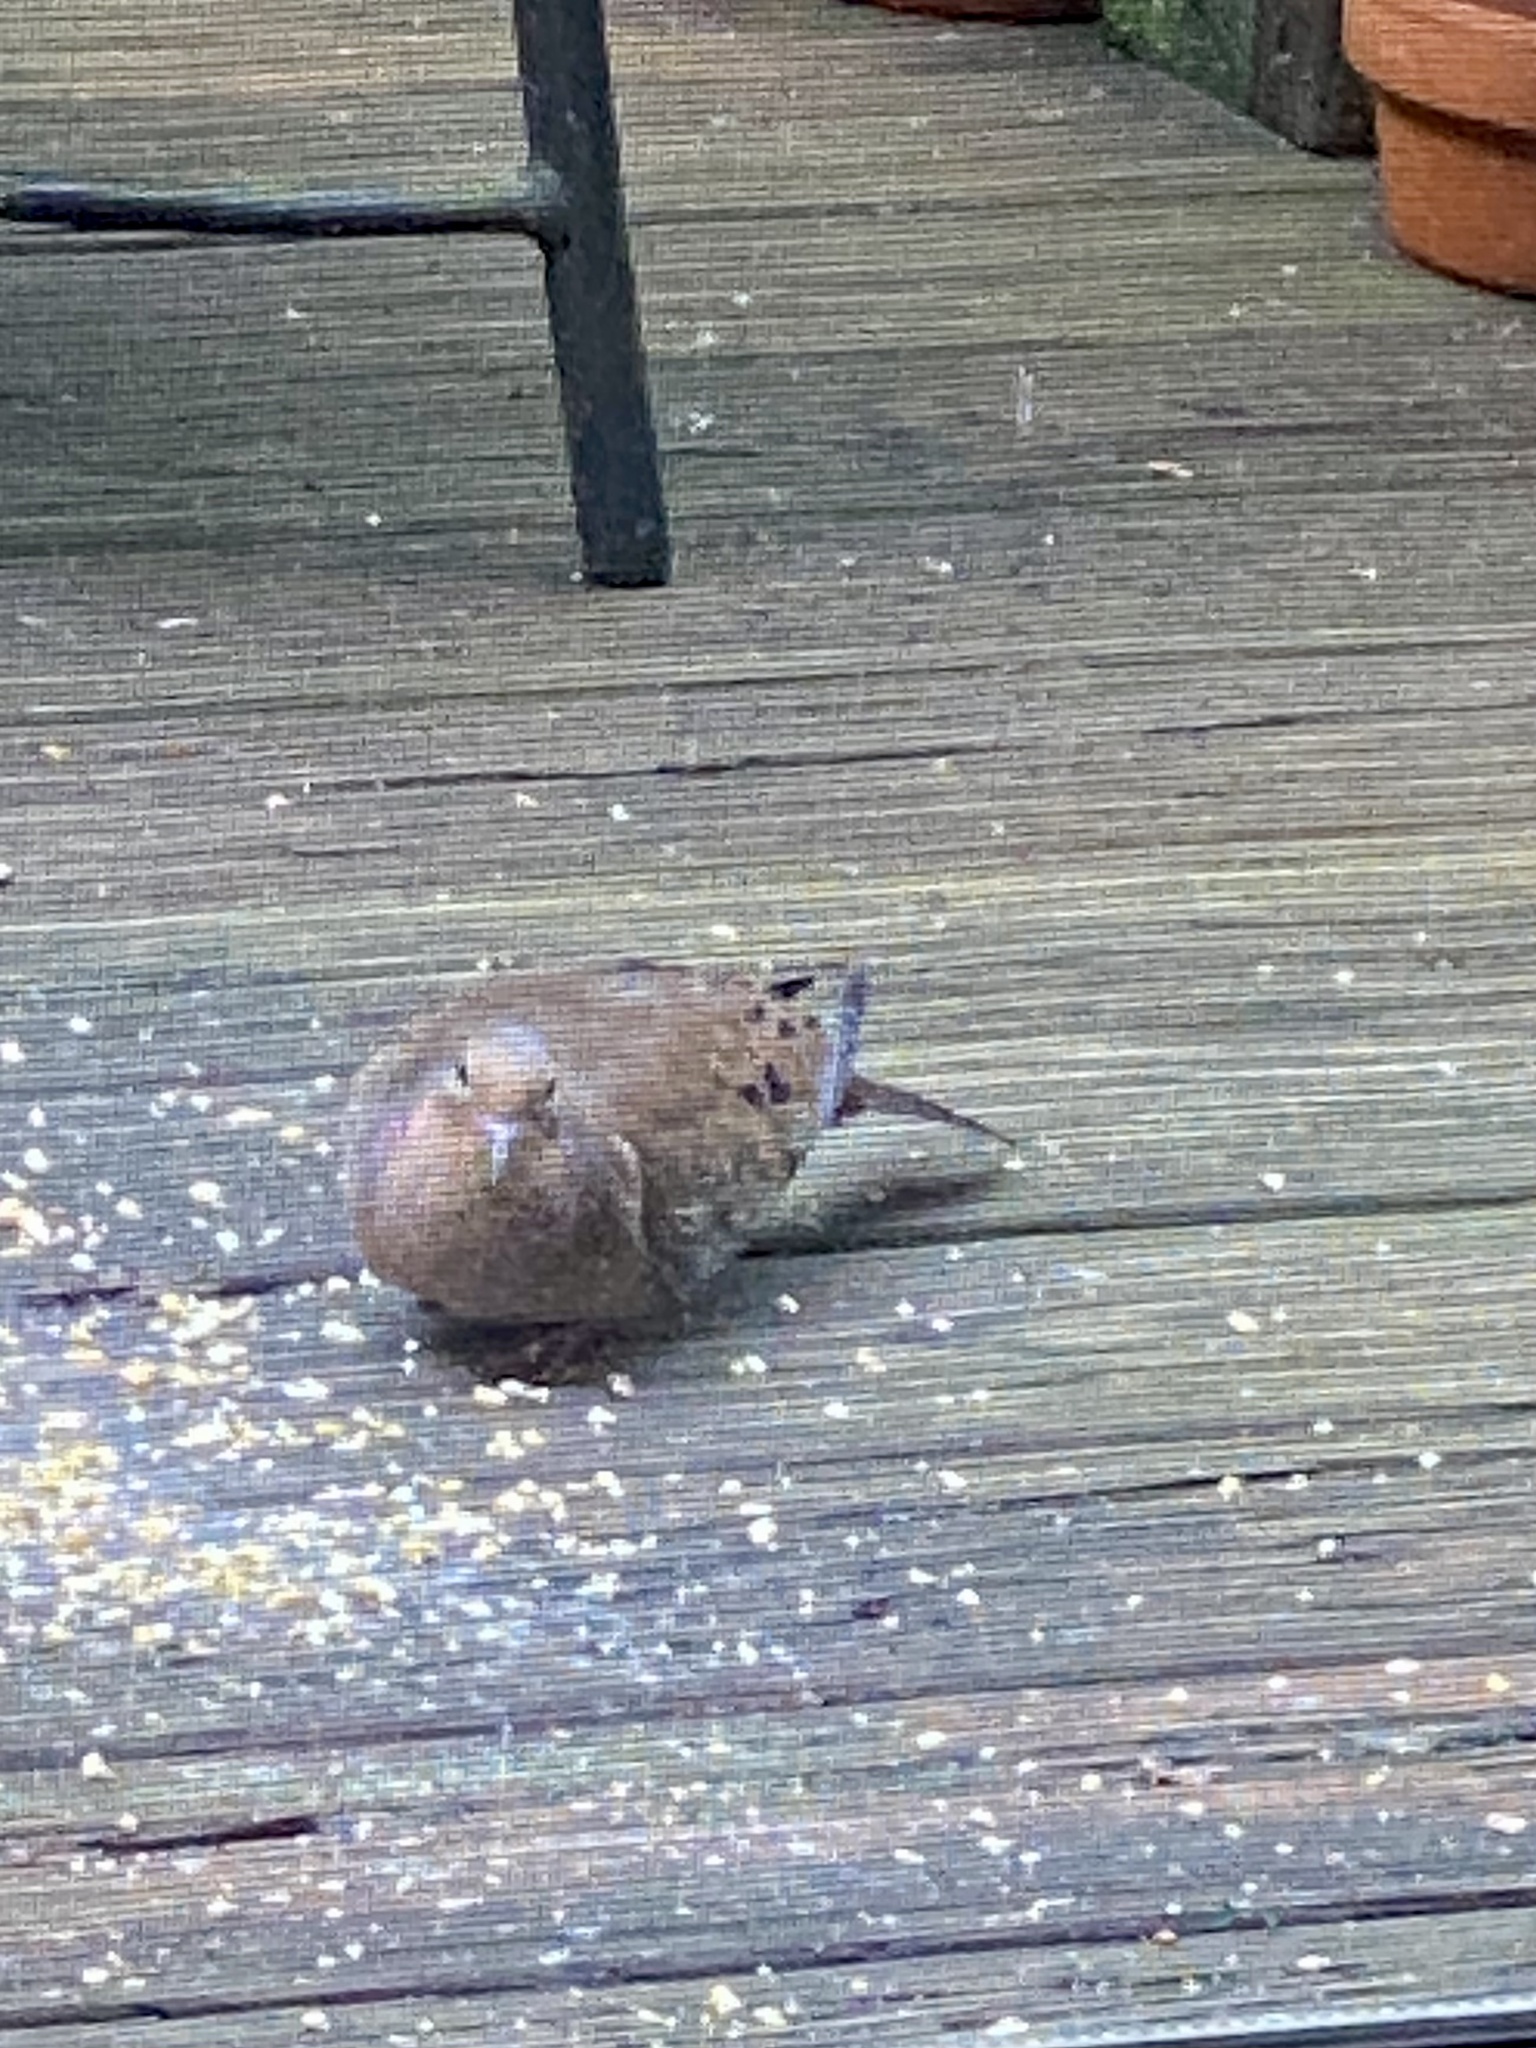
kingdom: Animalia
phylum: Chordata
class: Aves
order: Columbiformes
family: Columbidae
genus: Zenaida
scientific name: Zenaida macroura
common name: Mourning dove
